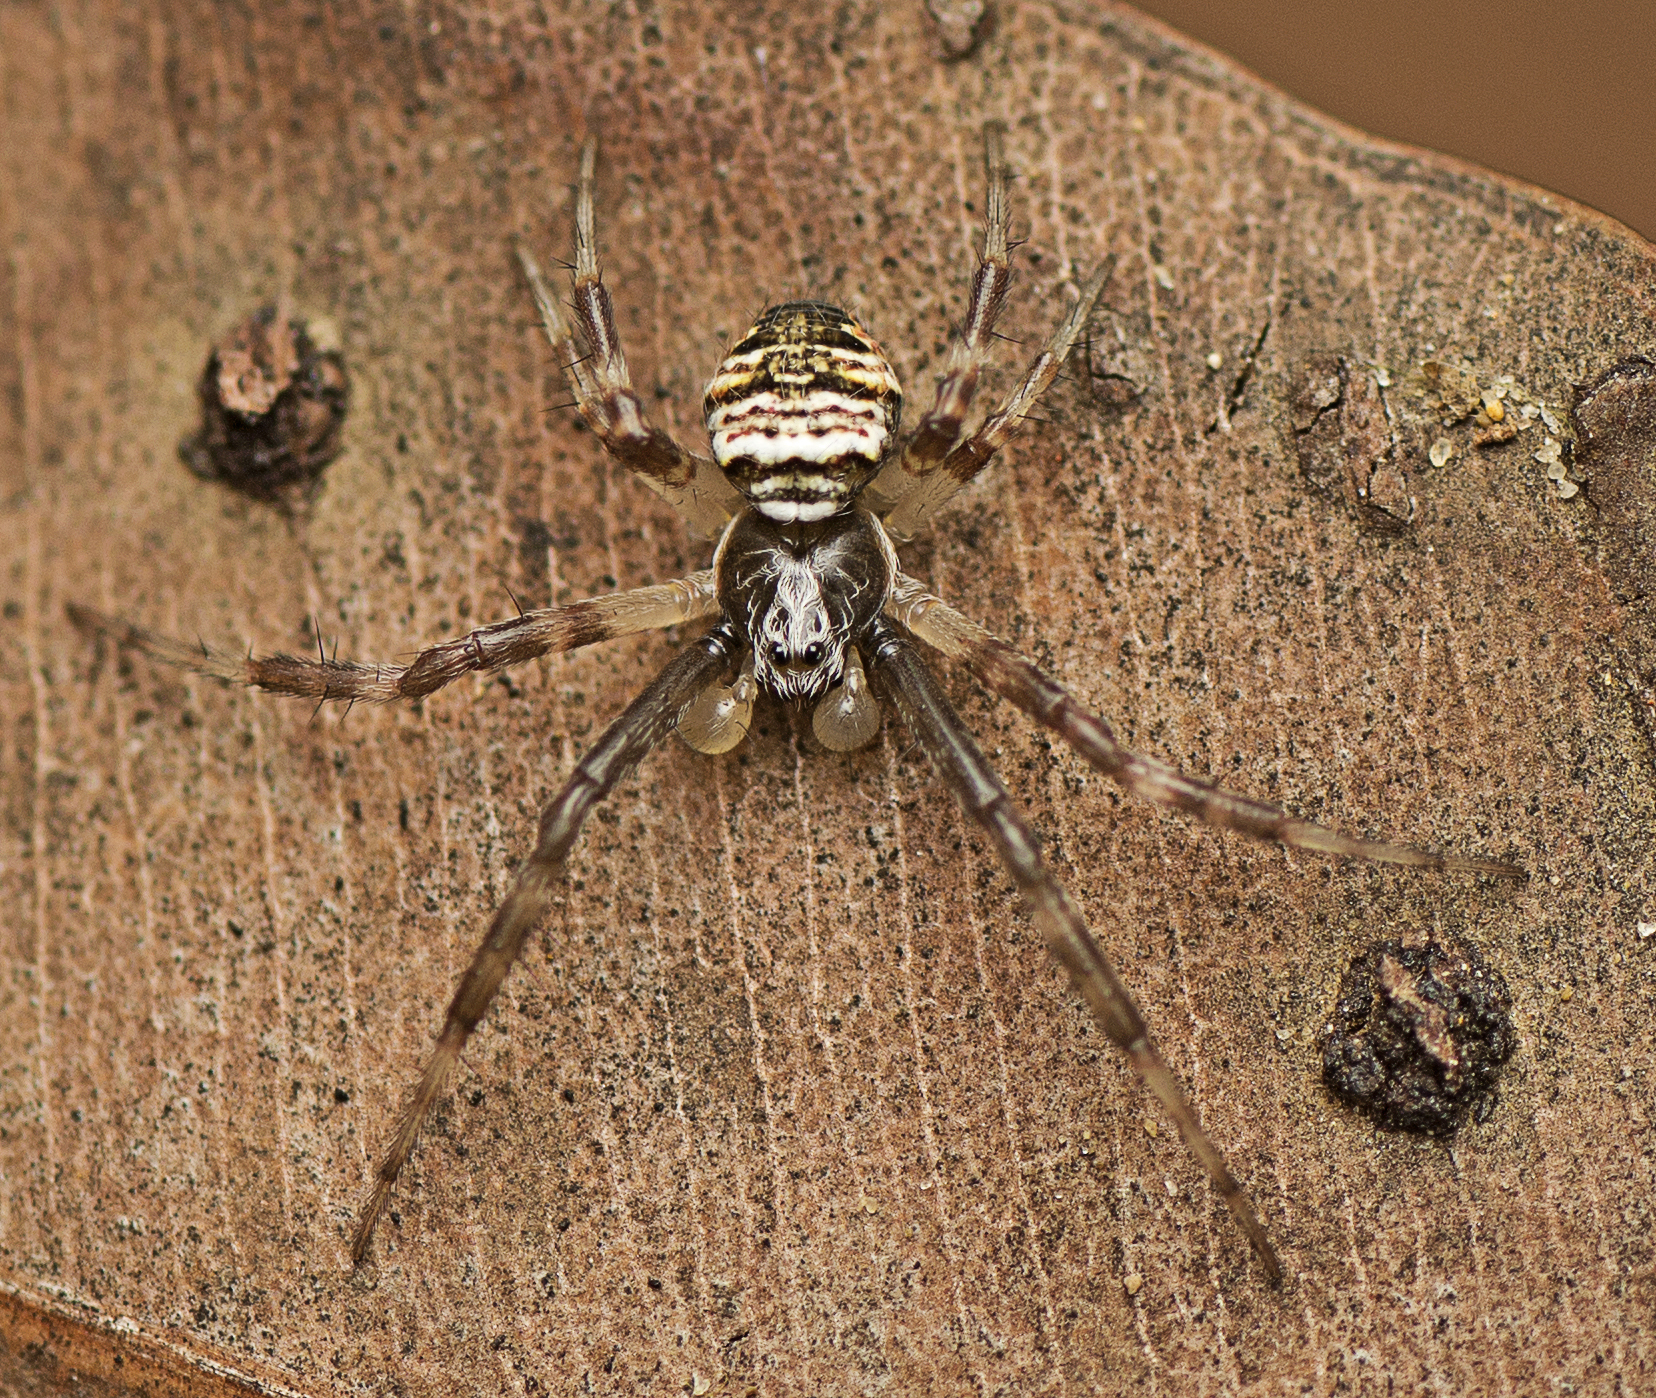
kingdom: Animalia
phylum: Arthropoda
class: Arachnida
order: Araneae
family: Araneidae
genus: Gea
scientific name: Gea theridioides
